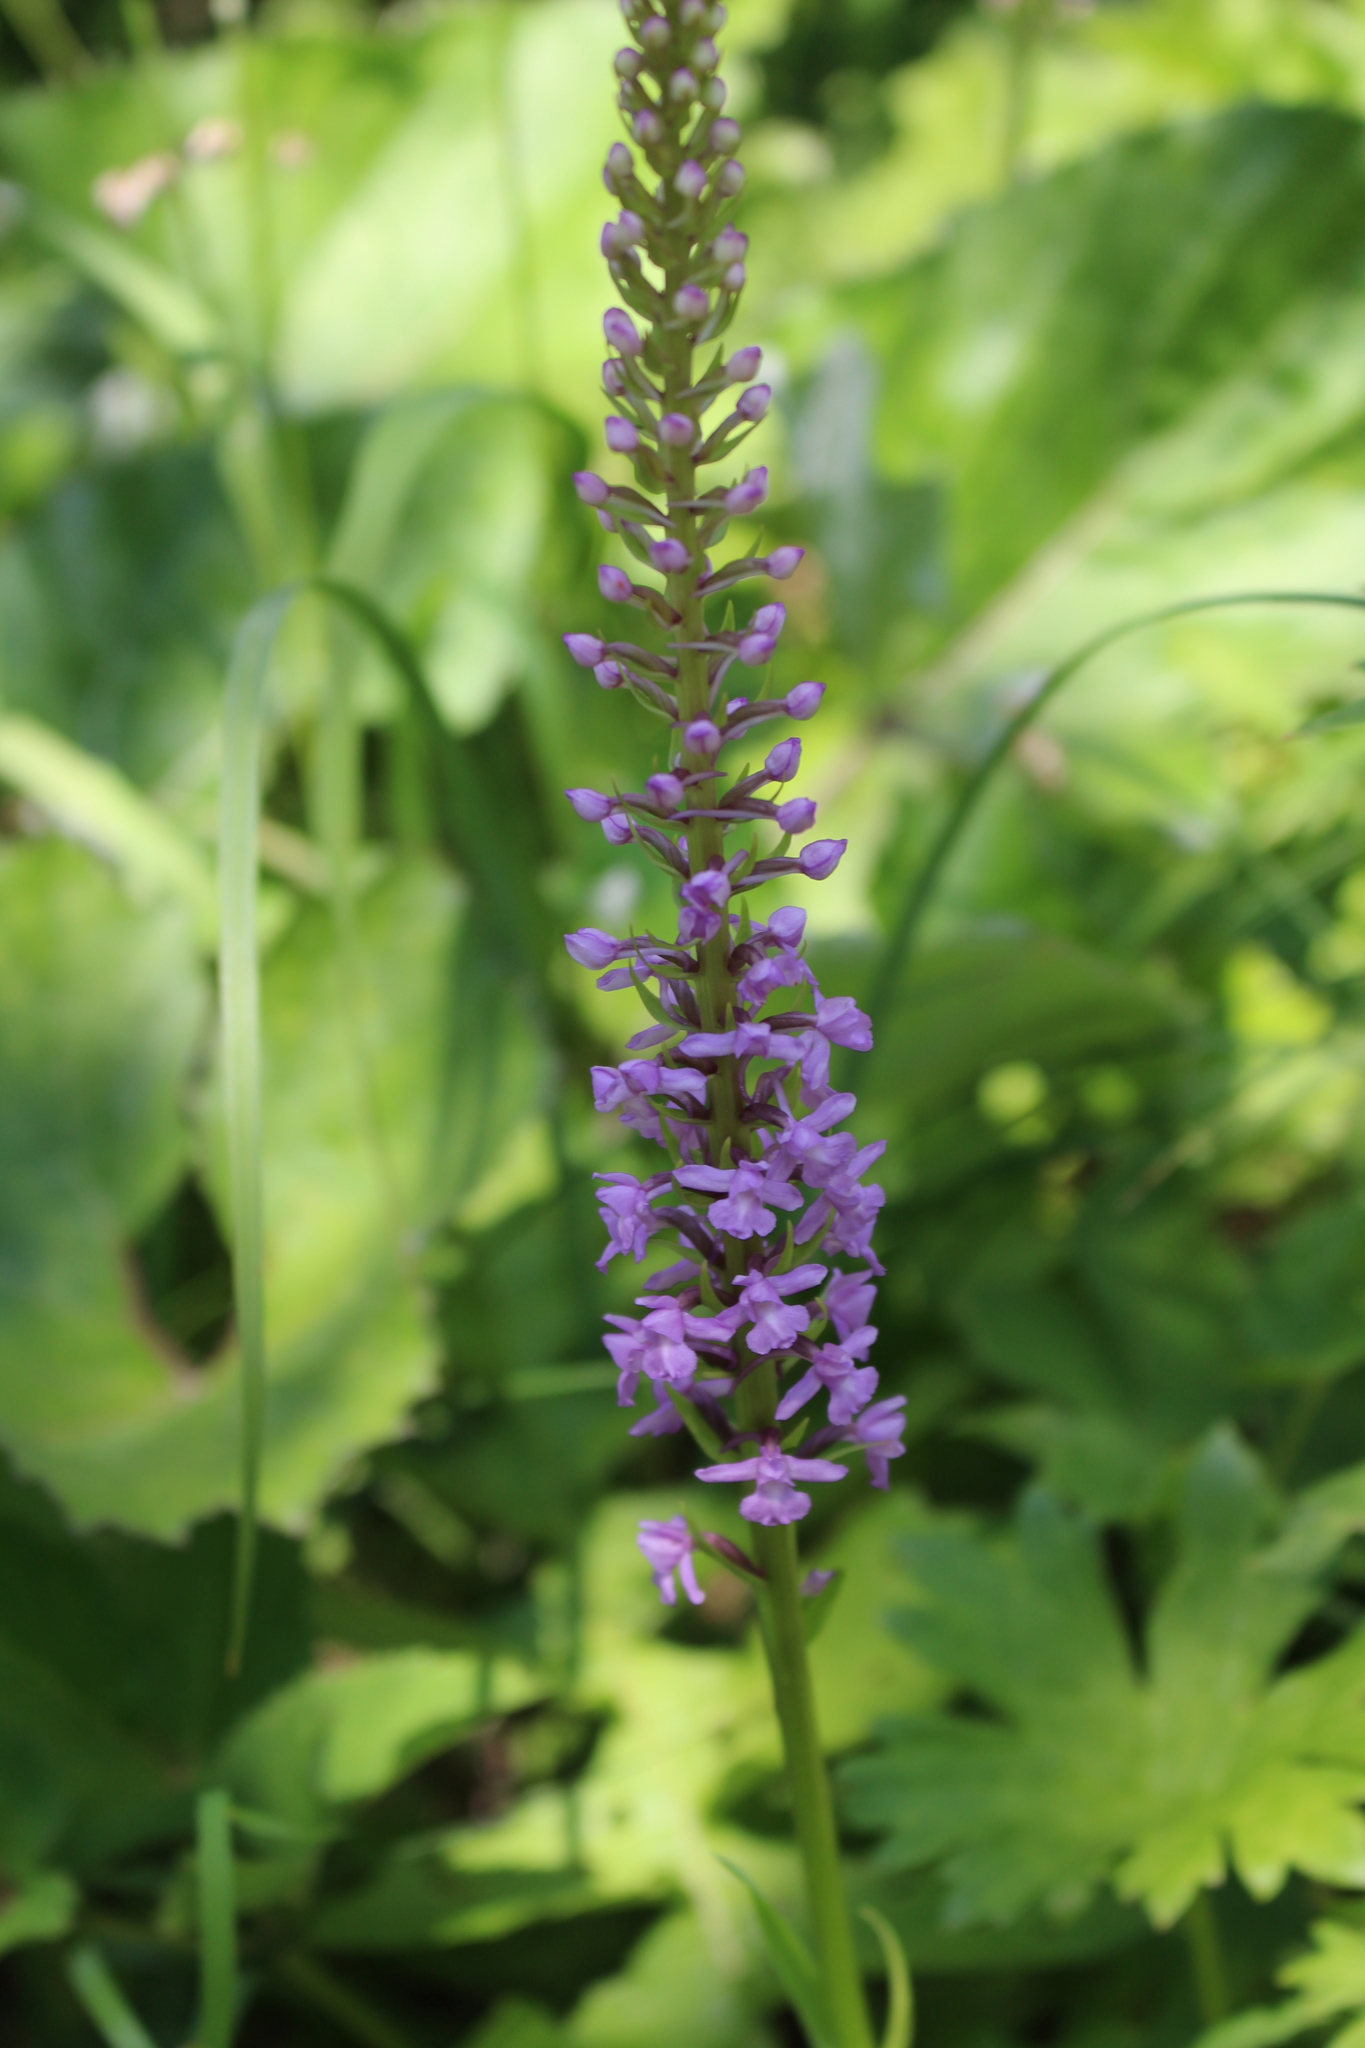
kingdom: Plantae
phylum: Tracheophyta
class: Liliopsida
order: Asparagales
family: Orchidaceae
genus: Gymnadenia
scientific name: Gymnadenia conopsea
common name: Fragrant orchid
